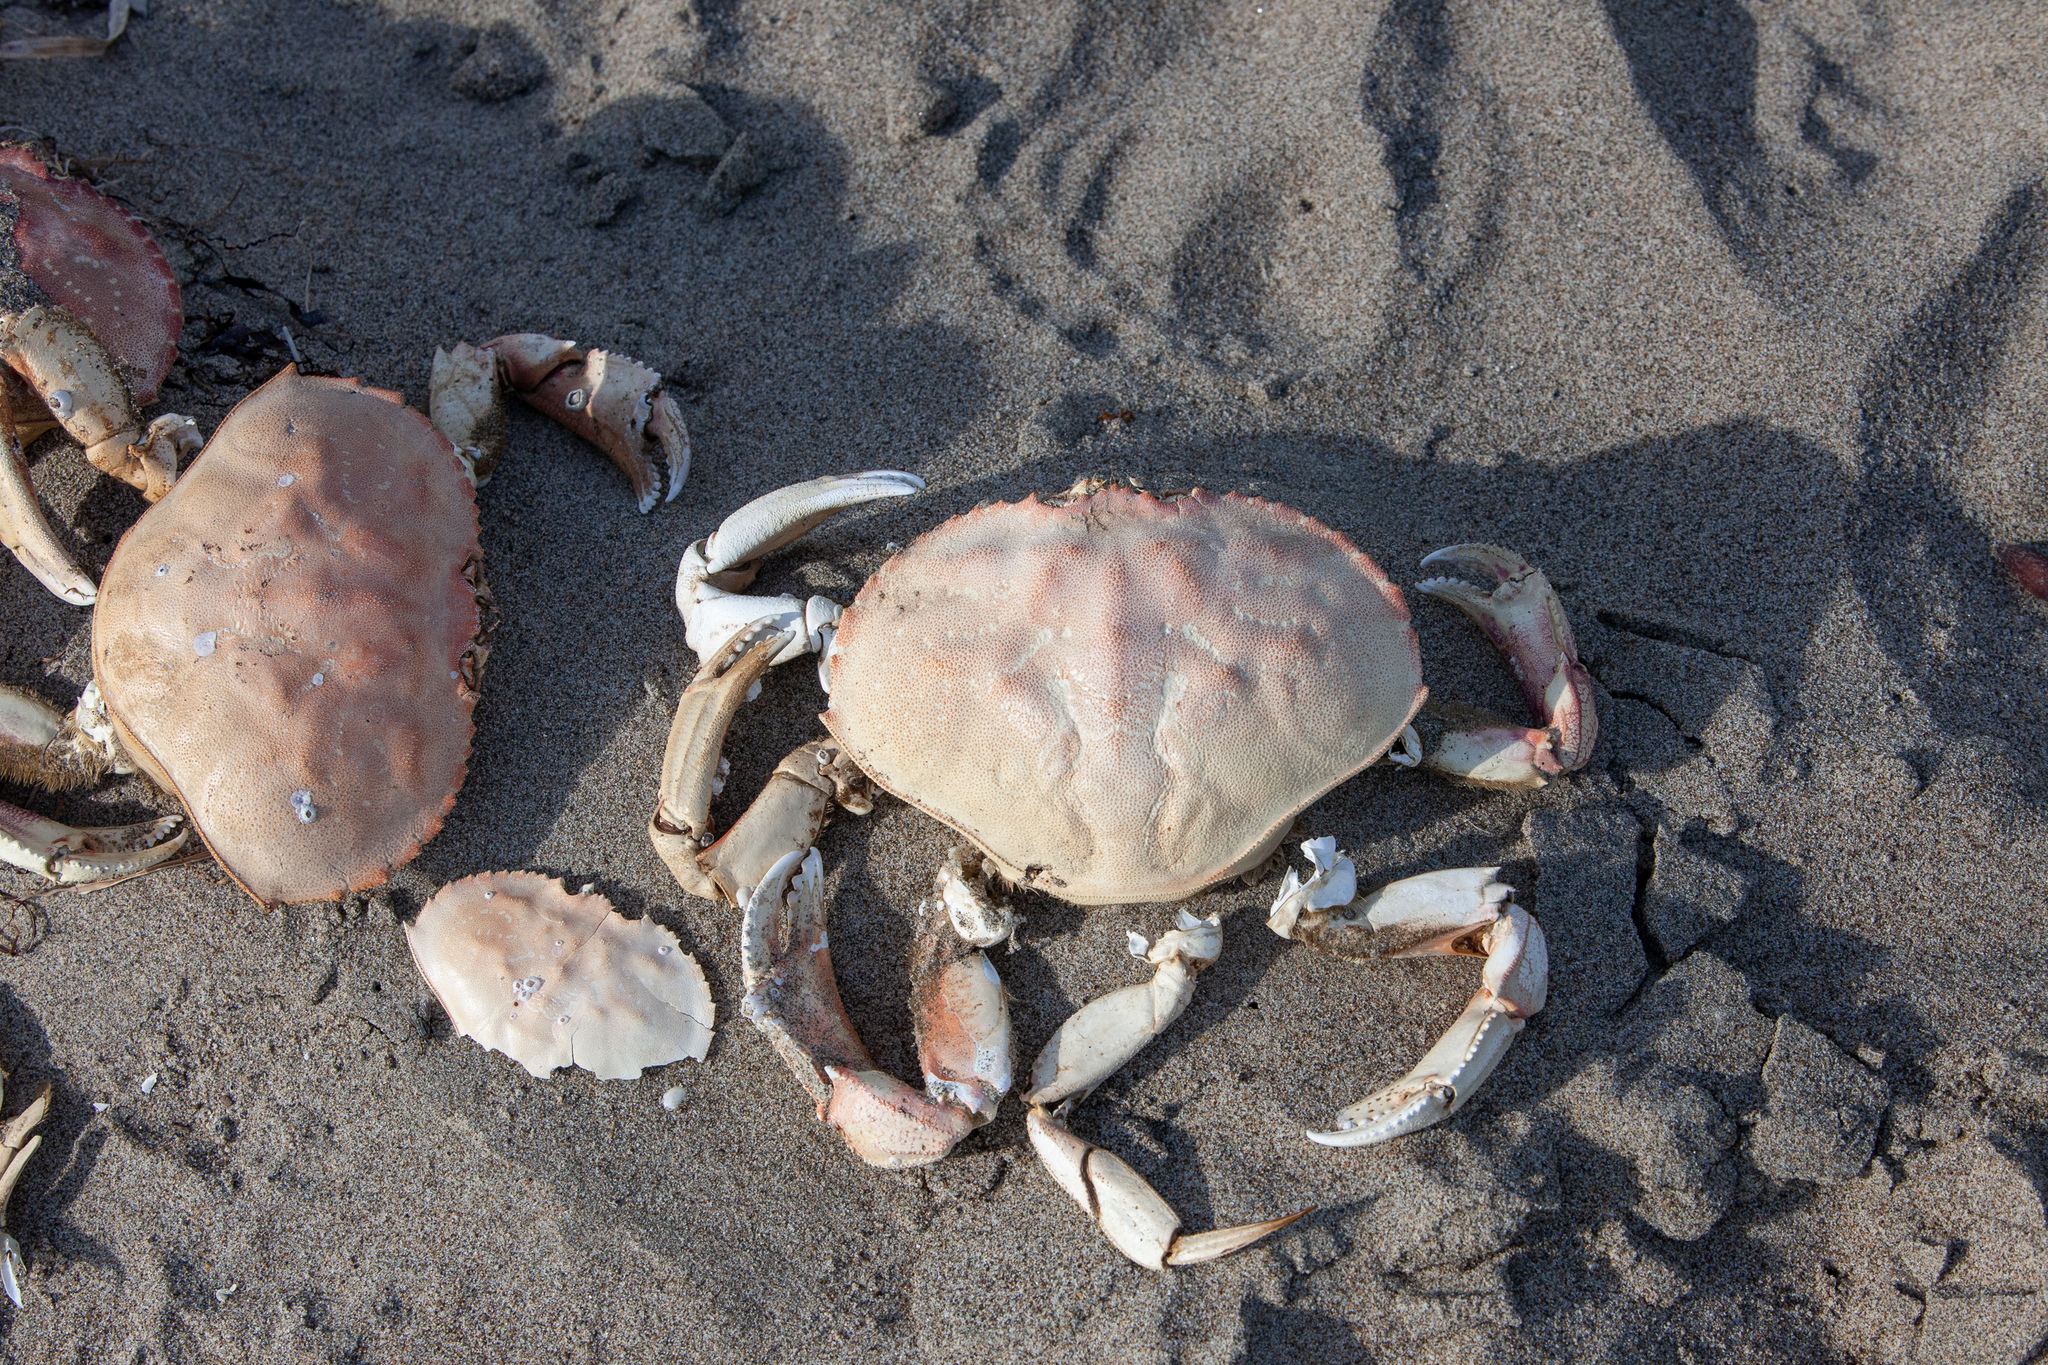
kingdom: Animalia
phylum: Arthropoda
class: Malacostraca
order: Decapoda
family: Cancridae
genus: Metacarcinus
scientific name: Metacarcinus magister
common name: Californian crab
